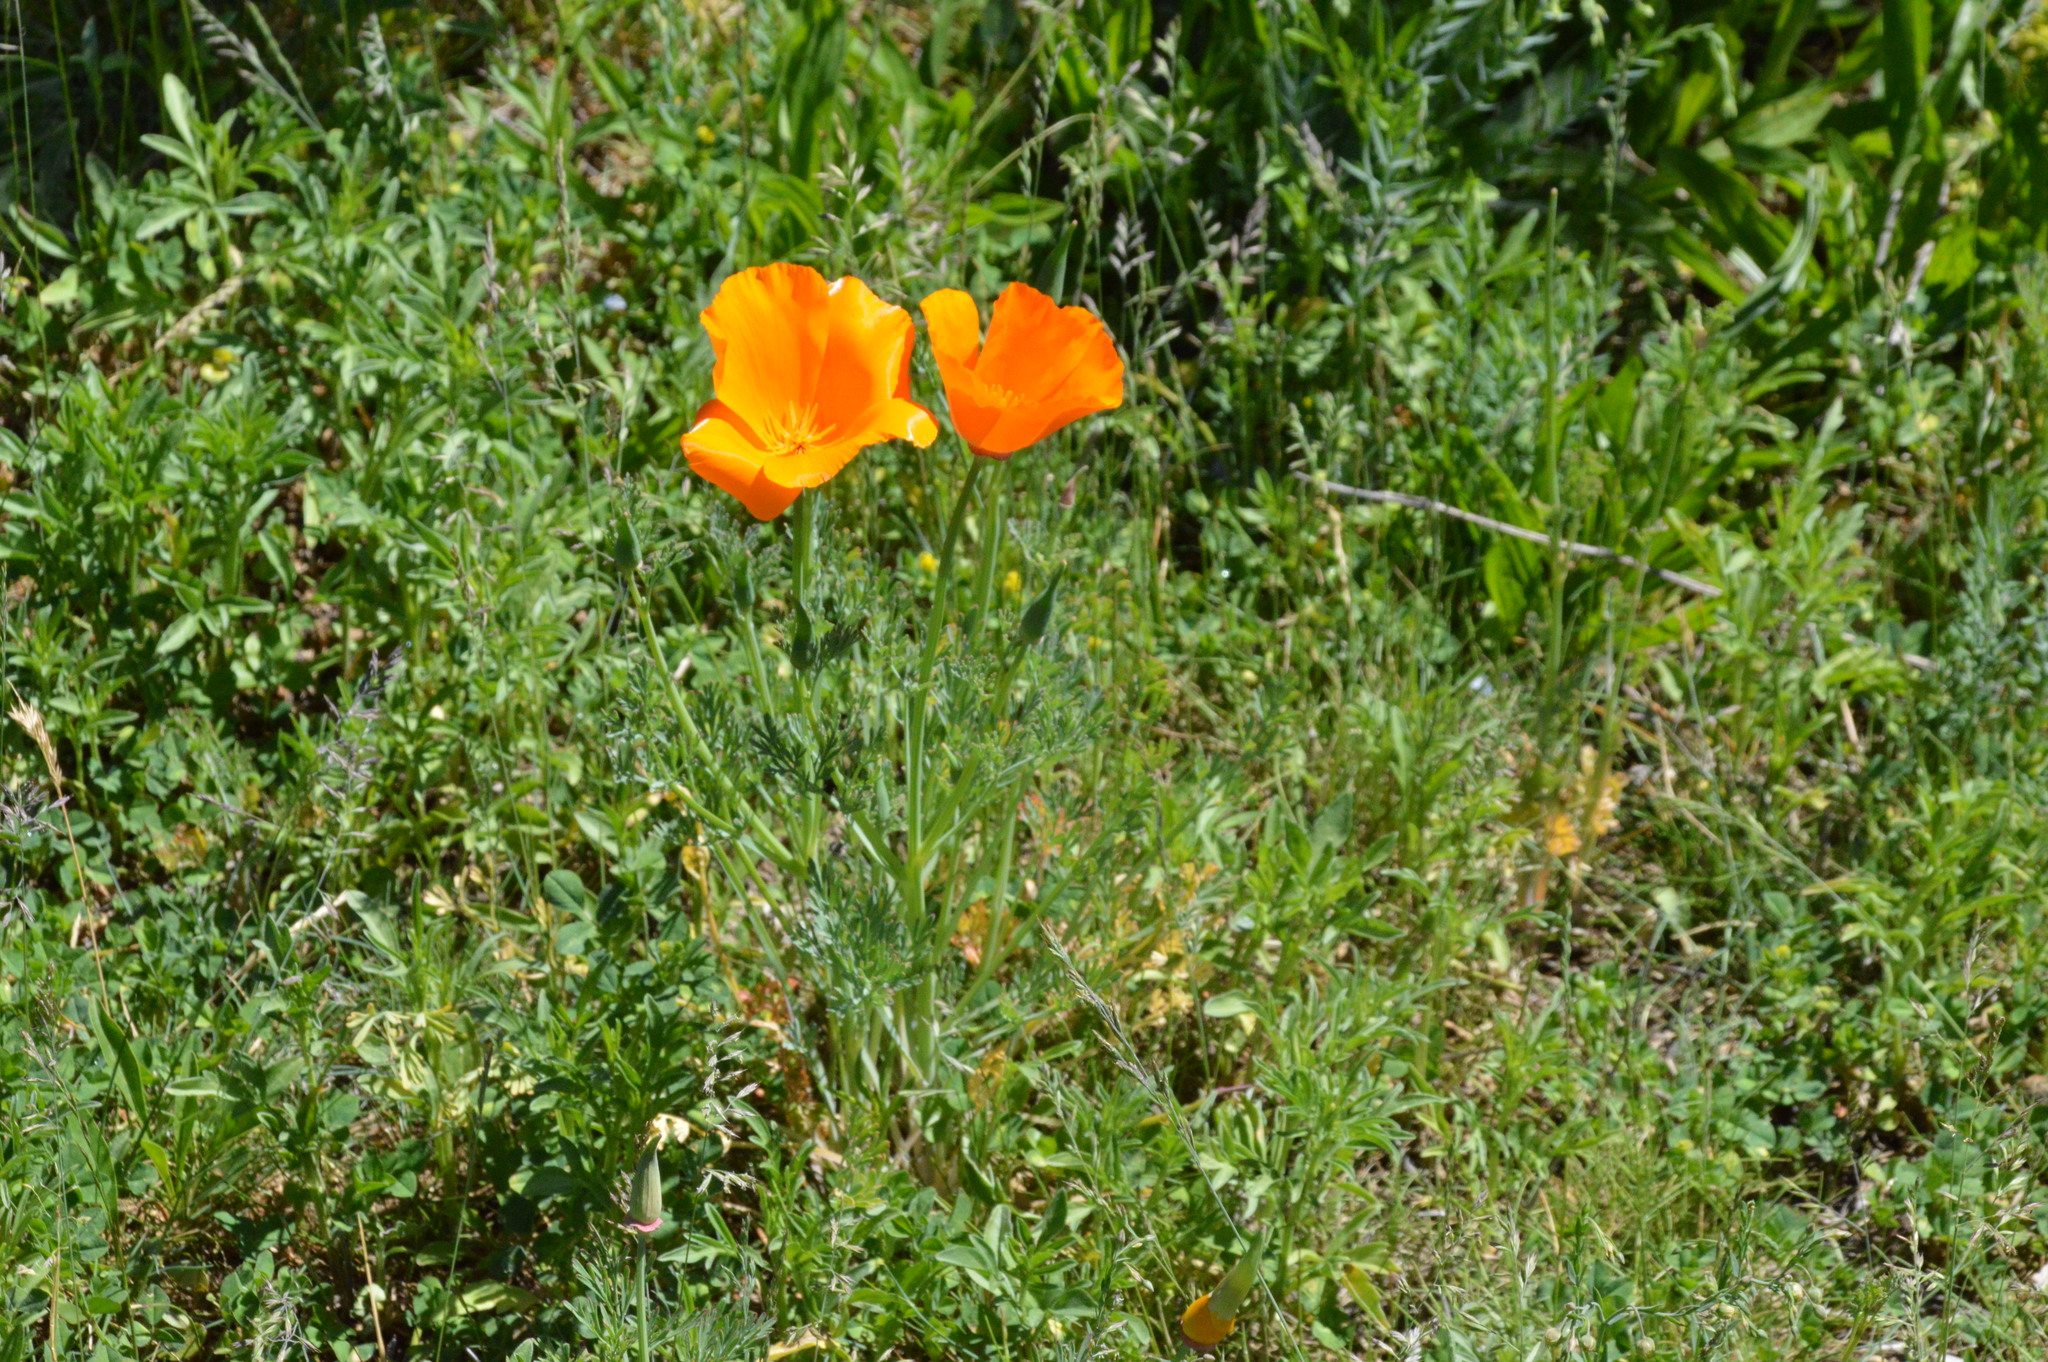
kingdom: Plantae
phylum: Tracheophyta
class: Magnoliopsida
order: Ranunculales
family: Papaveraceae
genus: Eschscholzia
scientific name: Eschscholzia californica
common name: California poppy
